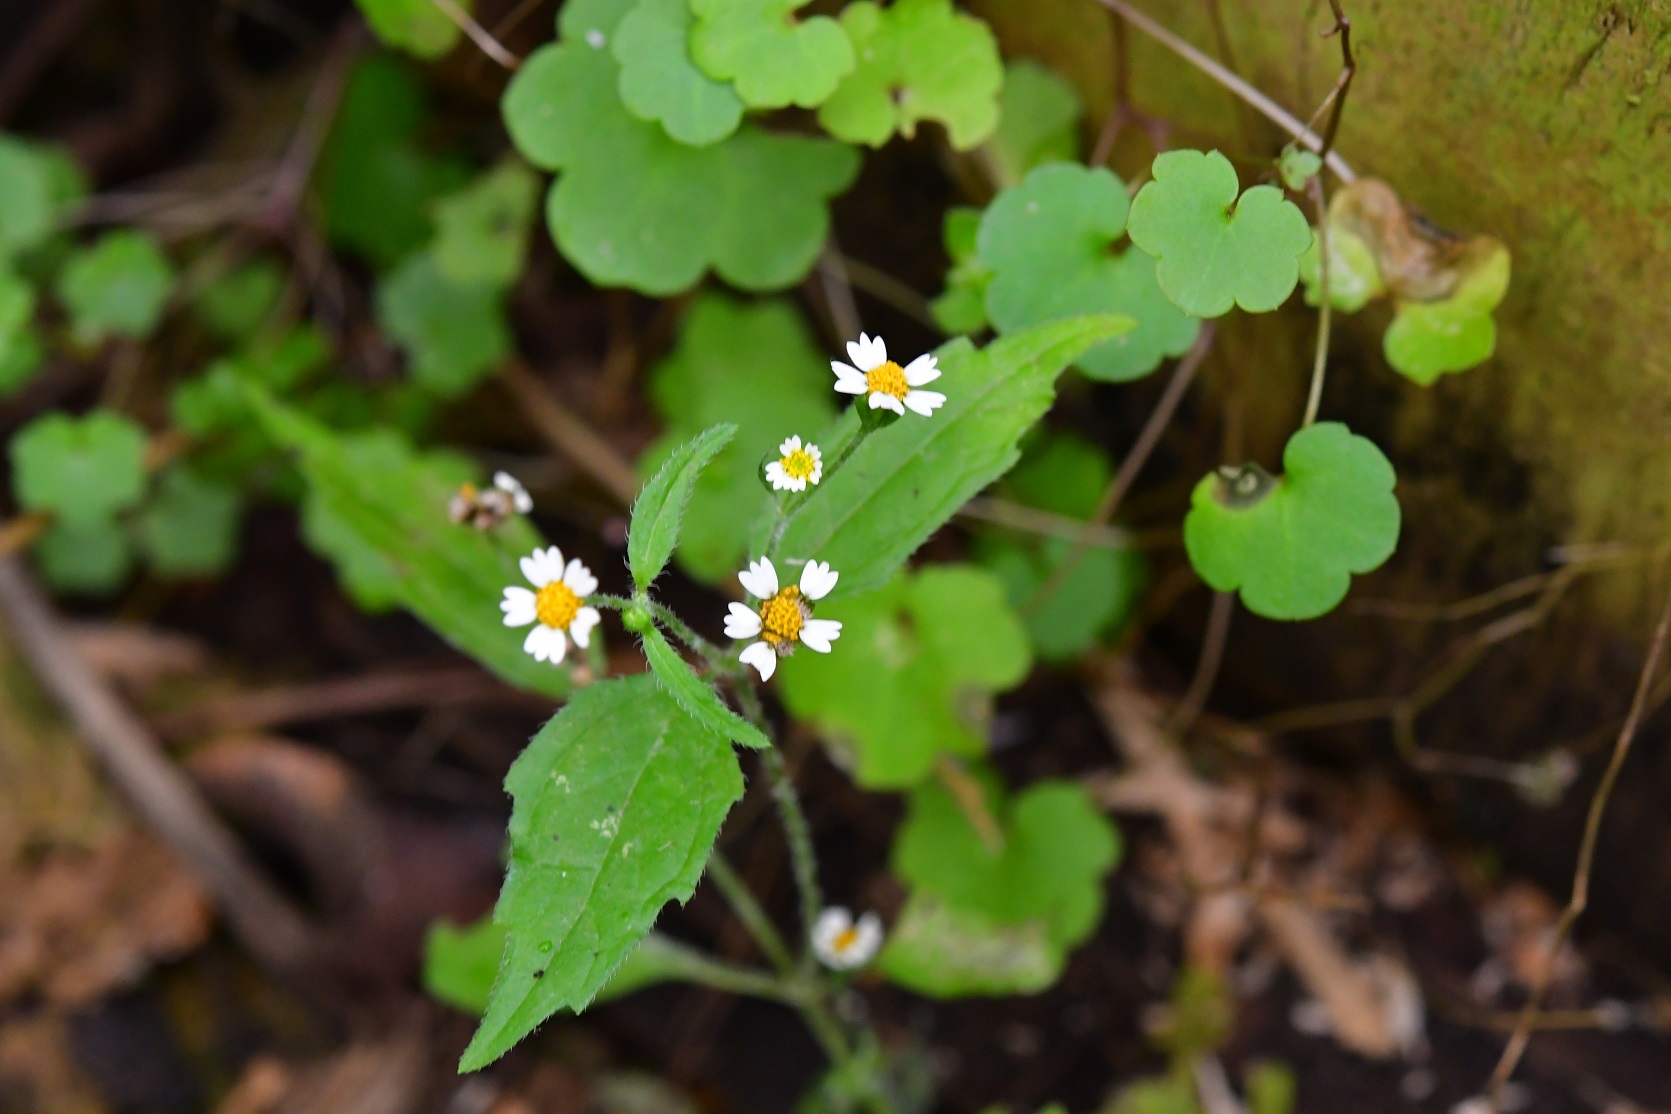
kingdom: Plantae
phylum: Tracheophyta
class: Magnoliopsida
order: Asterales
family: Asteraceae
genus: Galinsoga
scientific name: Galinsoga quadriradiata
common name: Shaggy soldier
